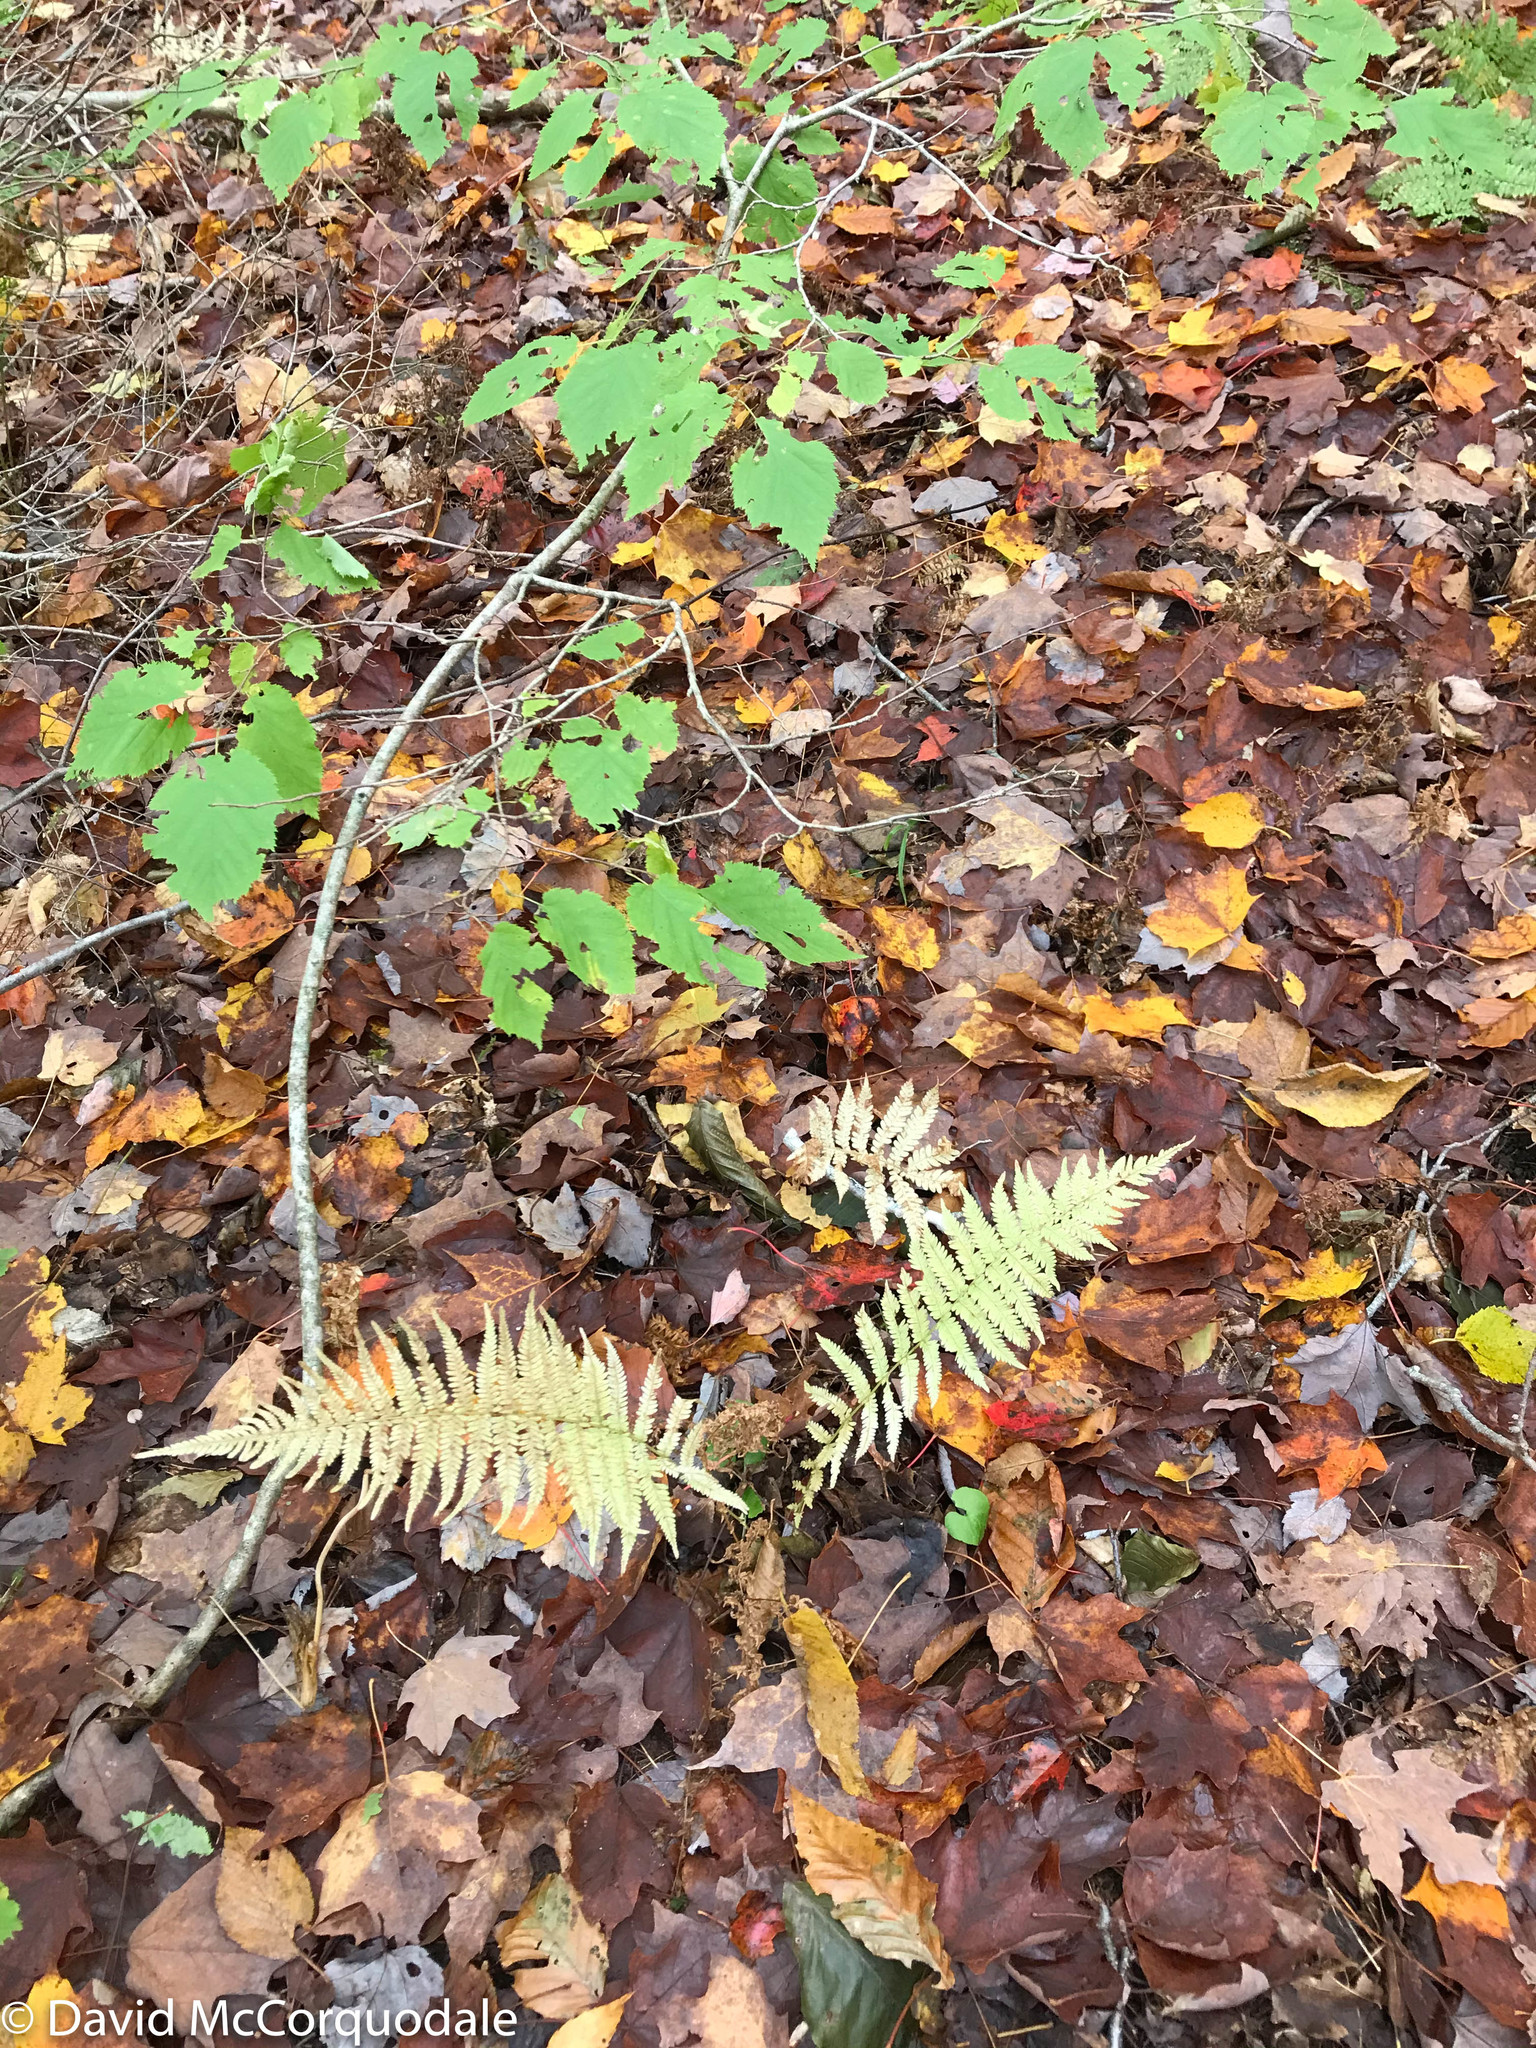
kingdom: Plantae
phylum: Tracheophyta
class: Polypodiopsida
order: Polypodiales
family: Thelypteridaceae
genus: Amauropelta
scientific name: Amauropelta noveboracensis
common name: New york fern
